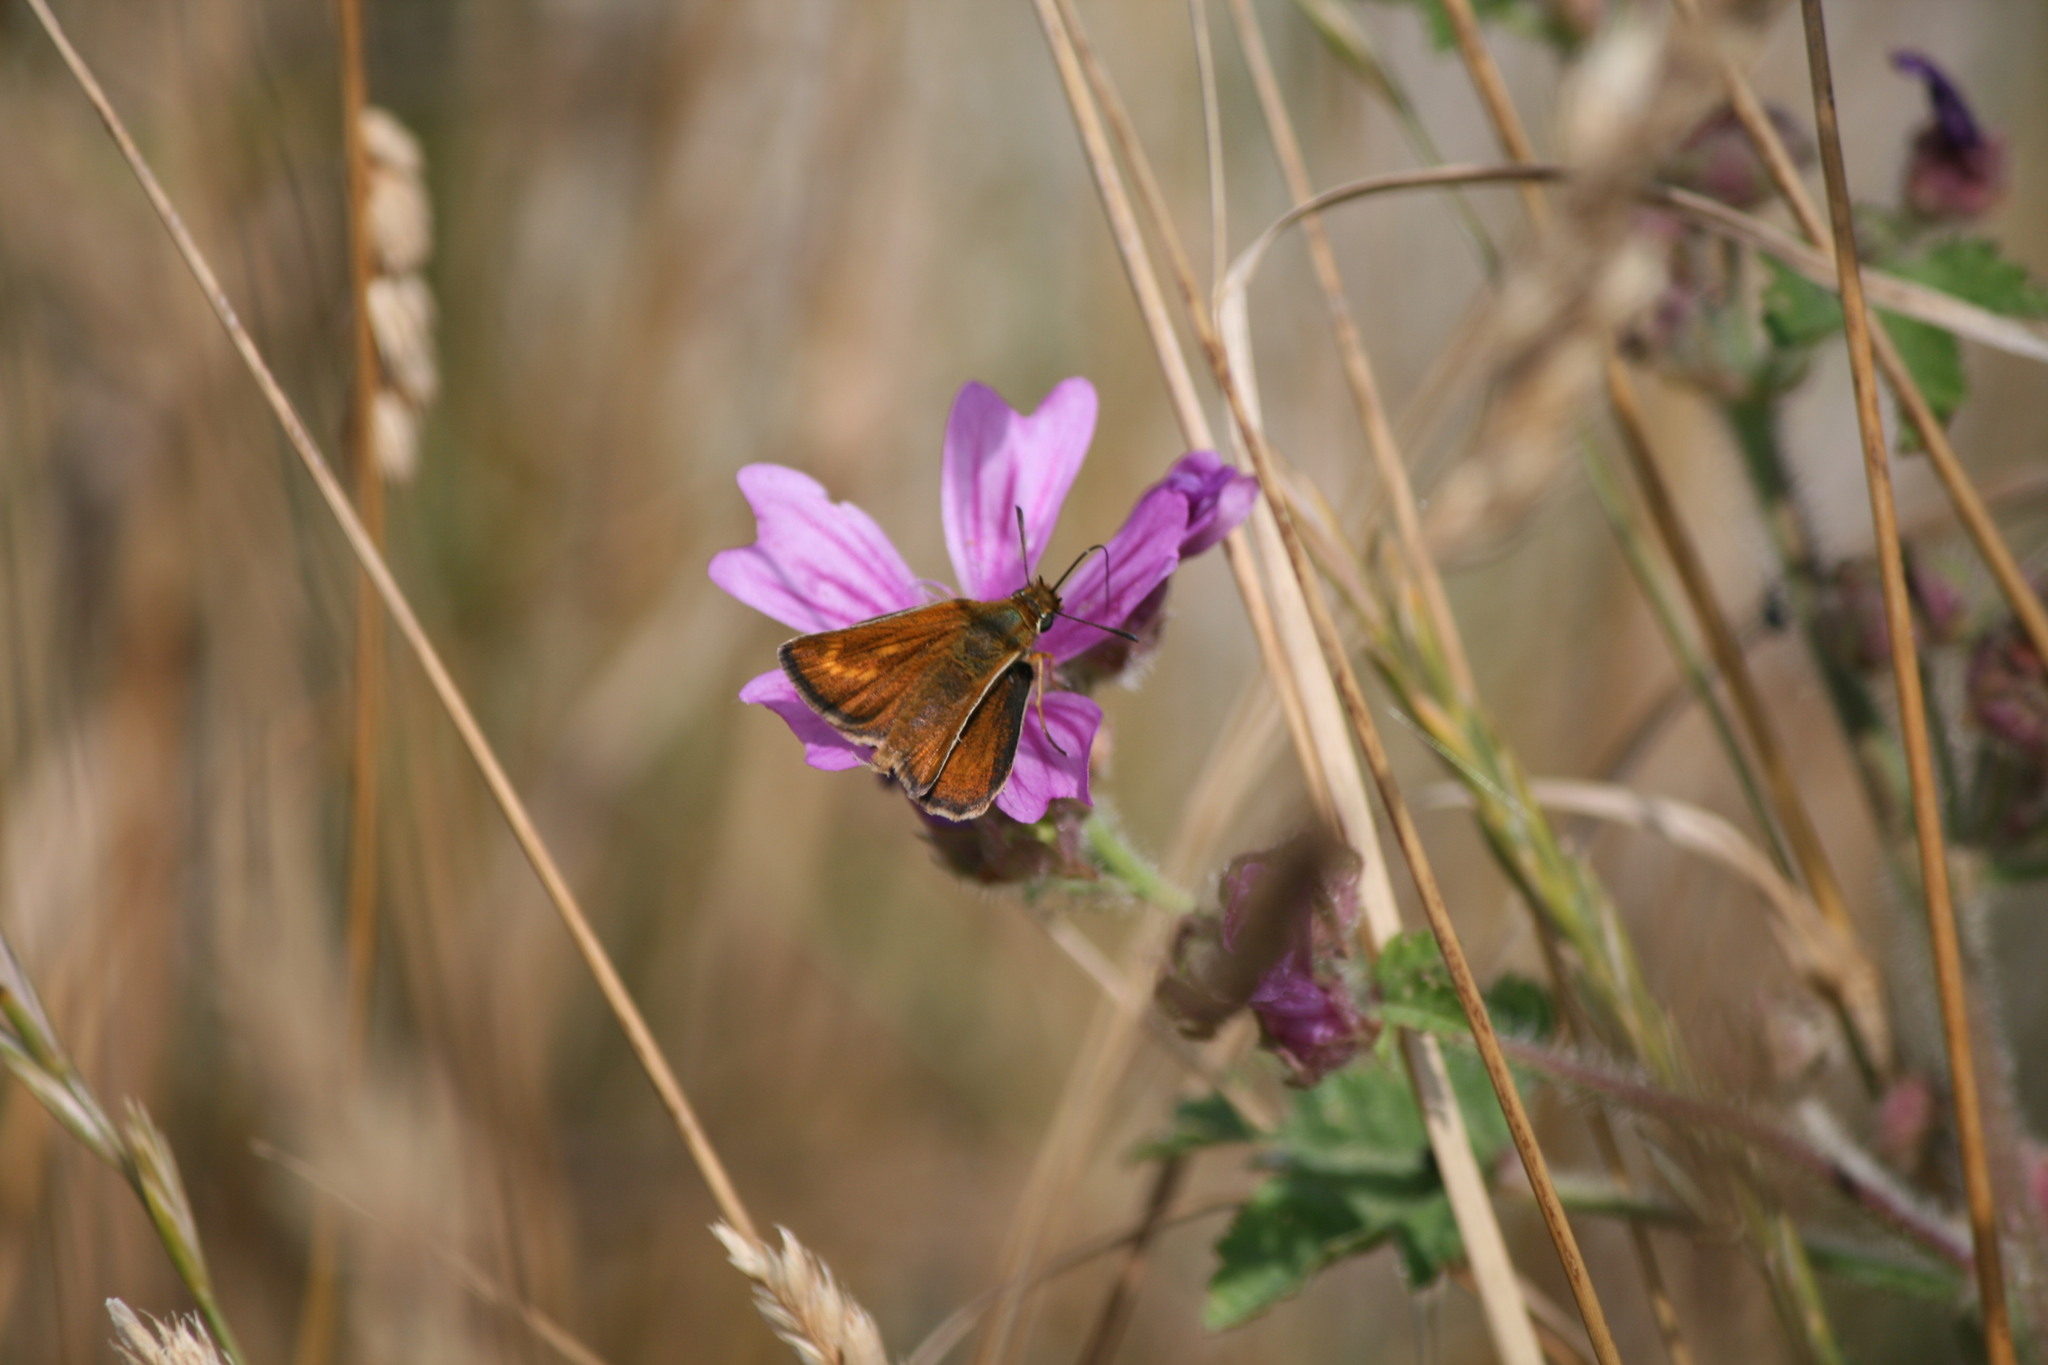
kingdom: Animalia
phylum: Arthropoda
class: Insecta
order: Lepidoptera
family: Hesperiidae
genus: Thymelicus
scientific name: Thymelicus acteon
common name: Lulworth skipper
